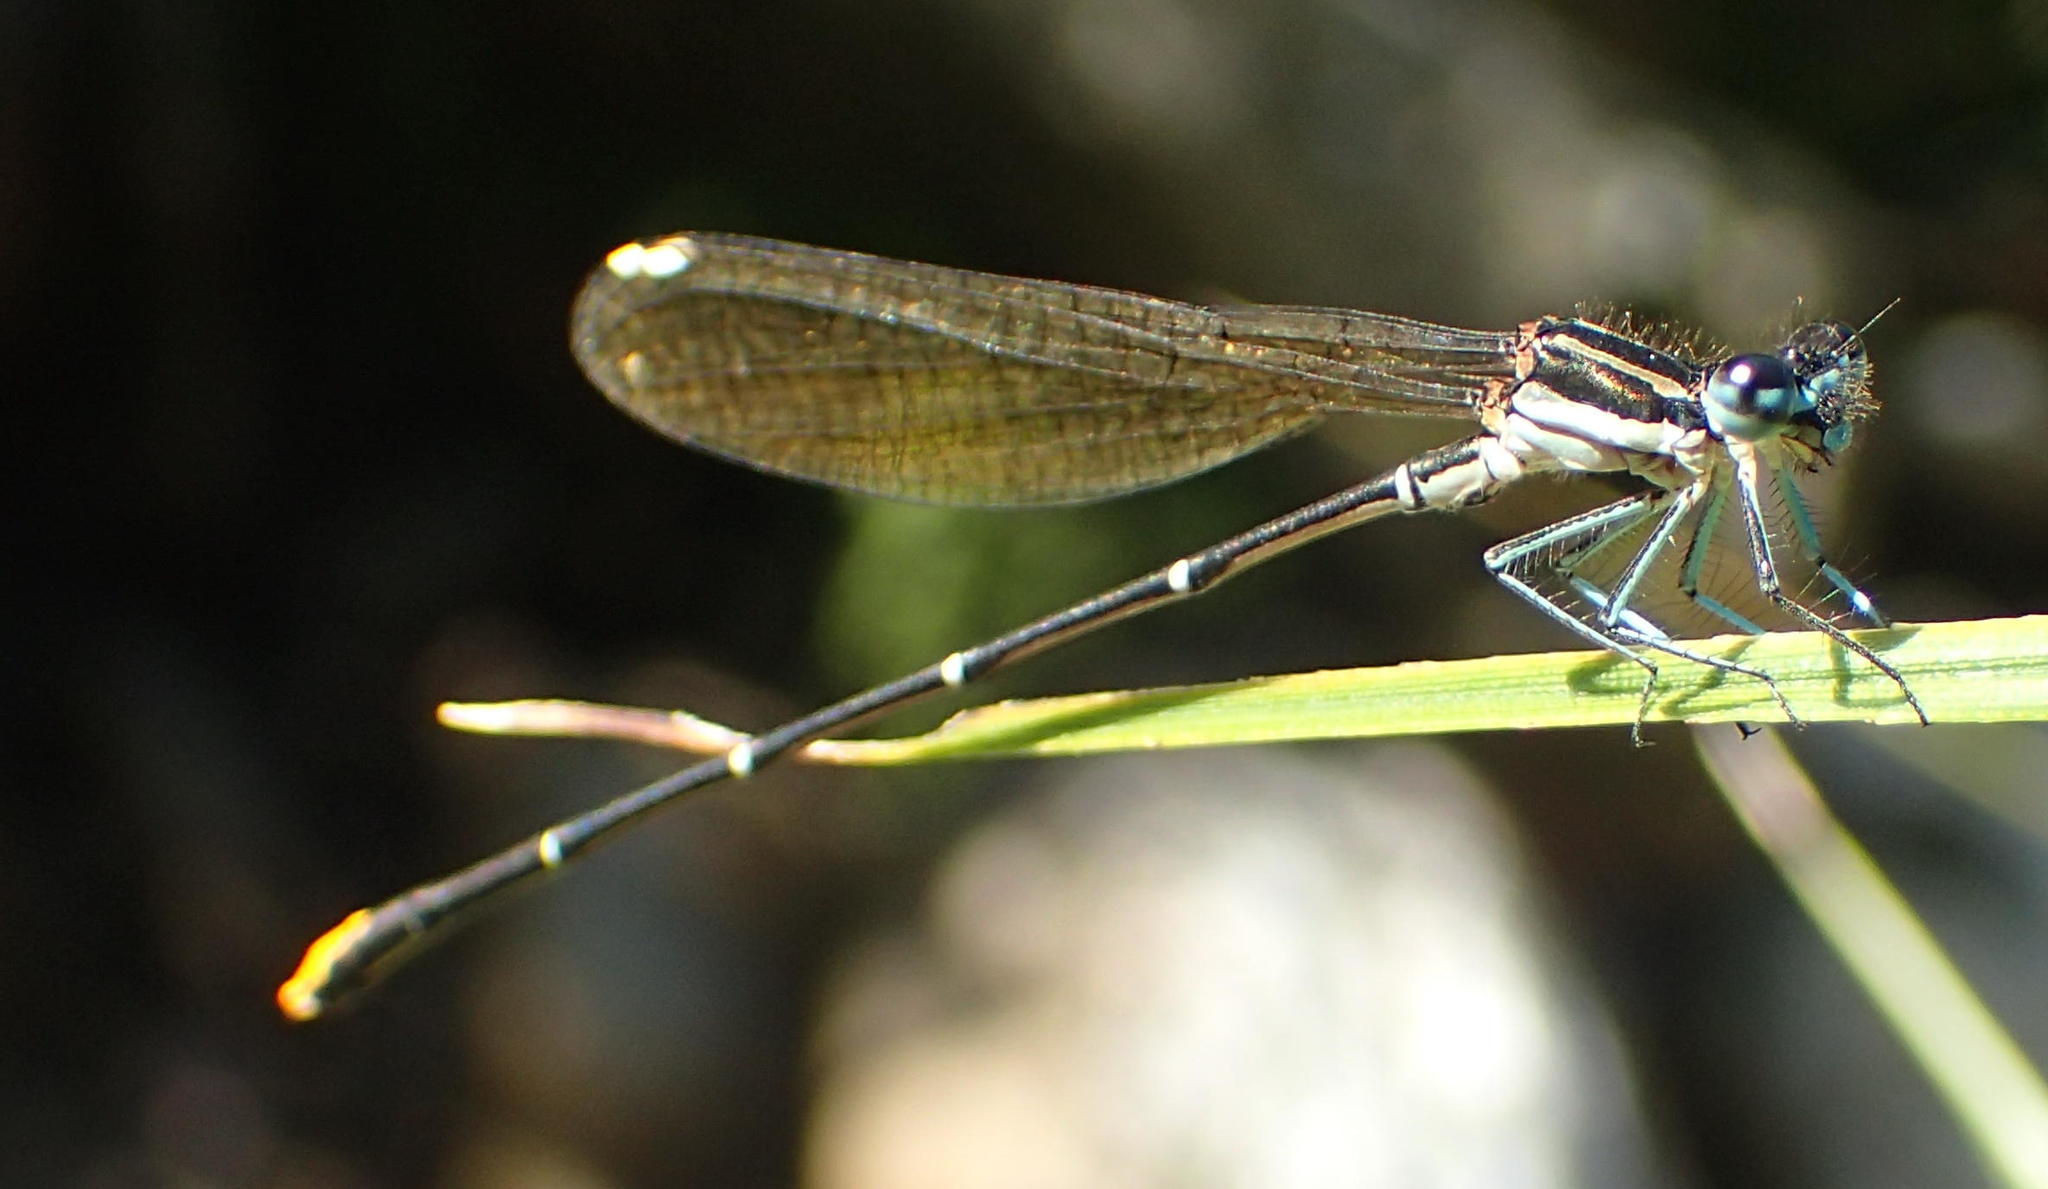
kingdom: Animalia
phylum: Arthropoda
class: Insecta
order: Odonata
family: Platycnemididae
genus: Allocnemis
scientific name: Allocnemis leucosticta
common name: Goldtail
